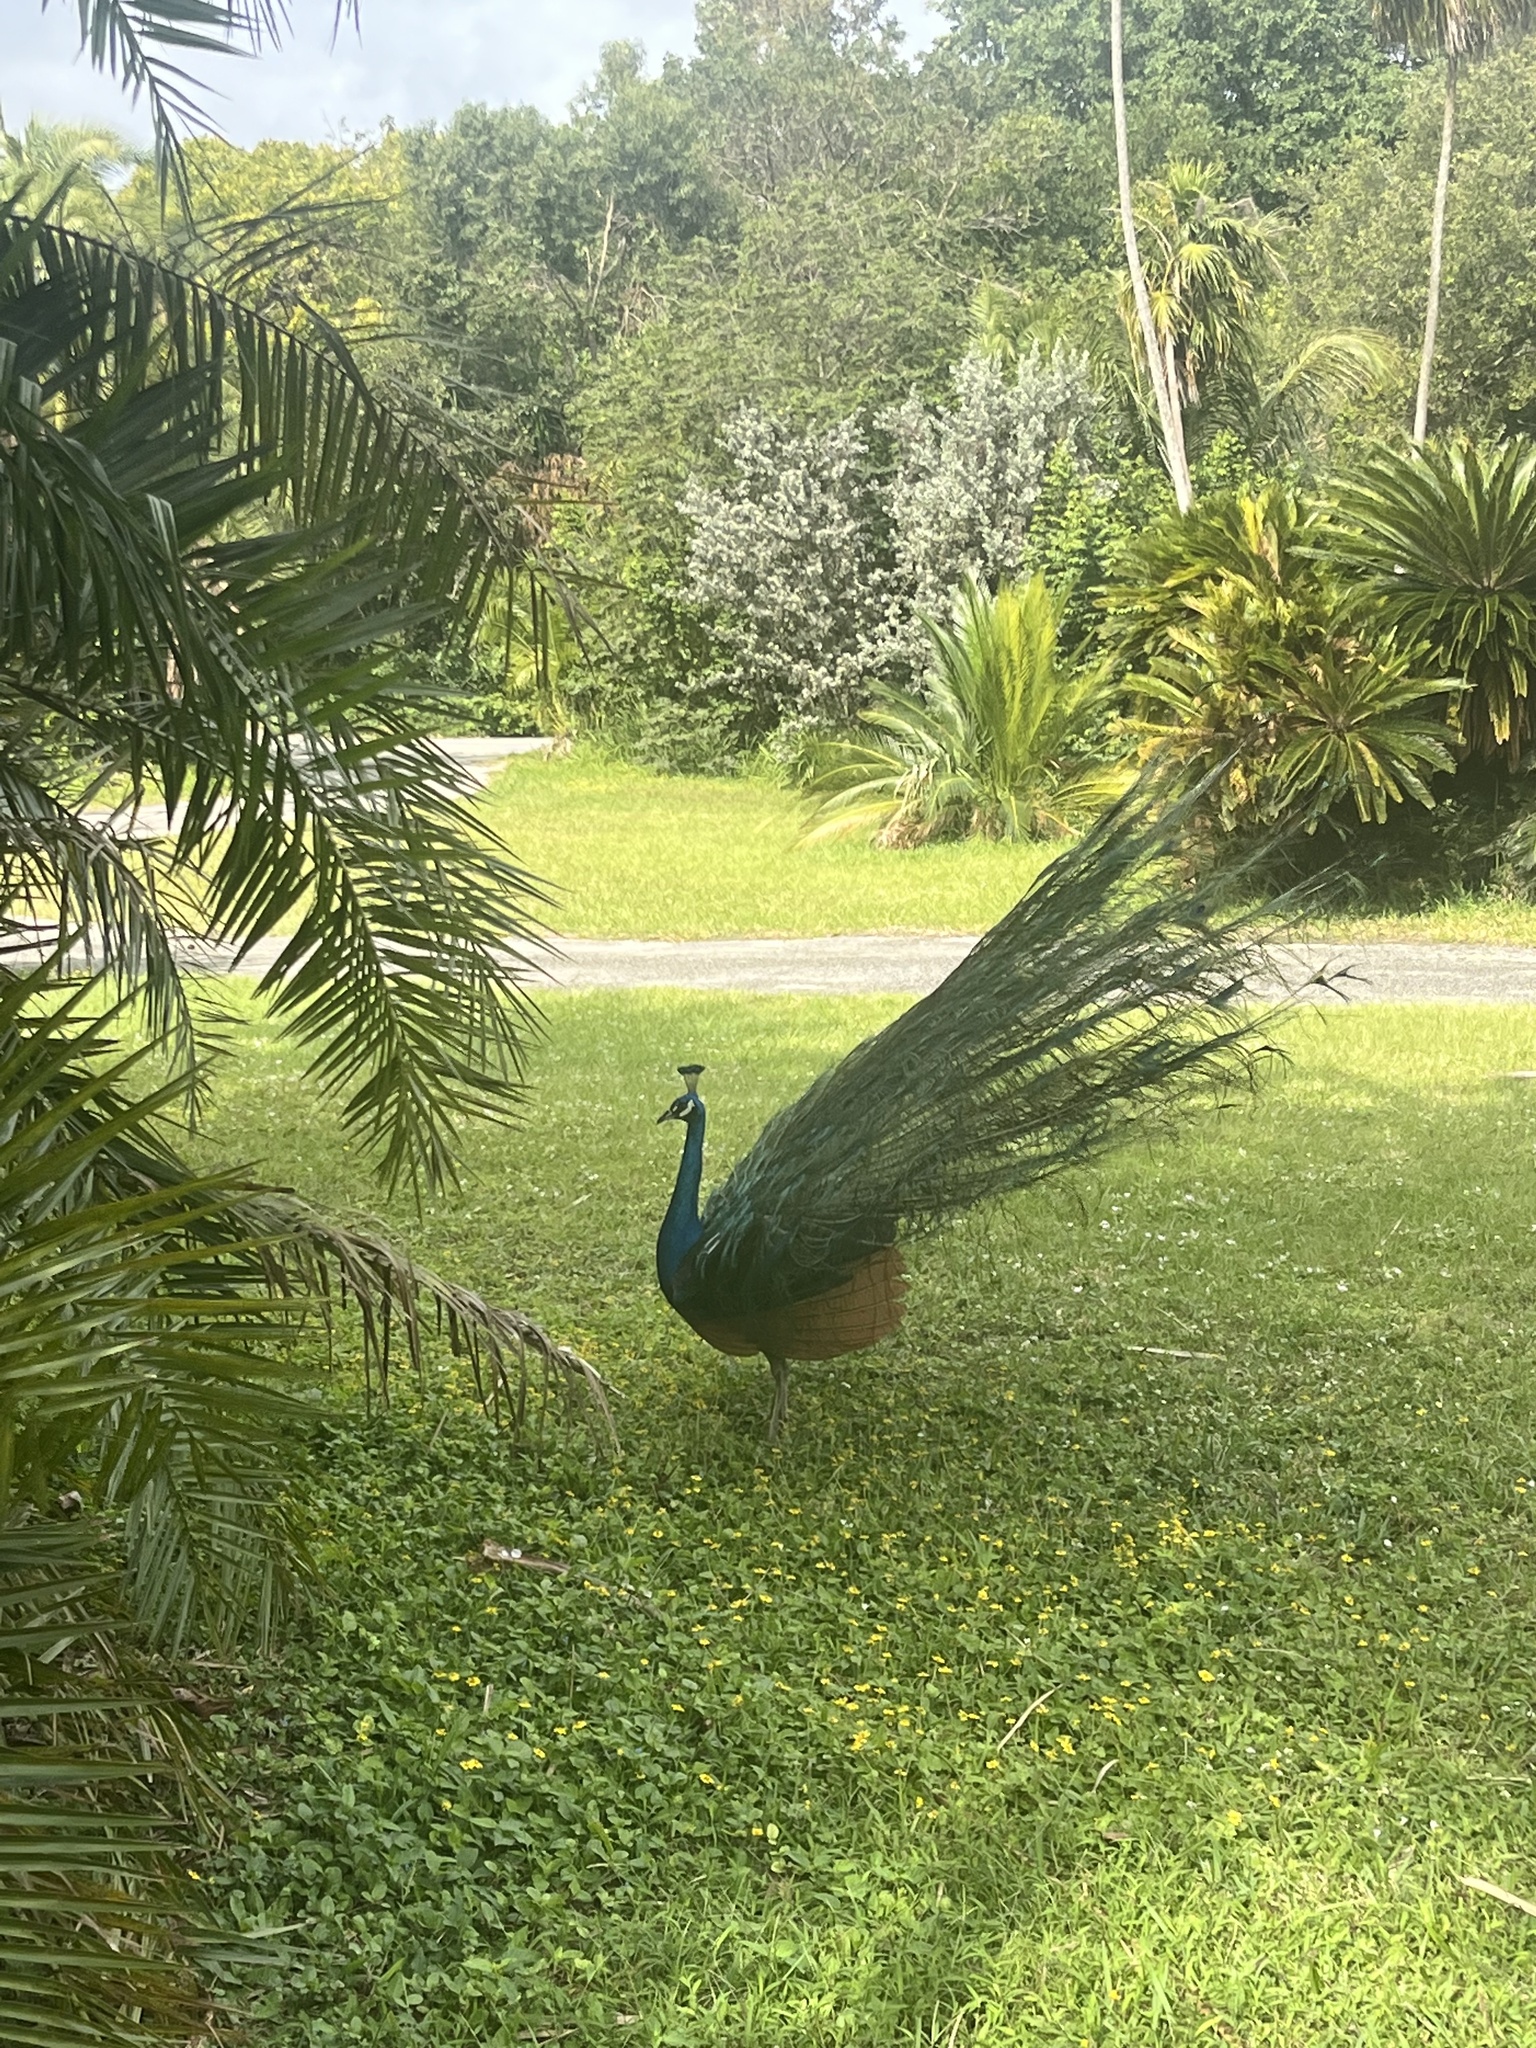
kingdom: Animalia
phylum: Chordata
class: Aves
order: Galliformes
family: Phasianidae
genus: Pavo
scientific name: Pavo cristatus
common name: Indian peafowl
